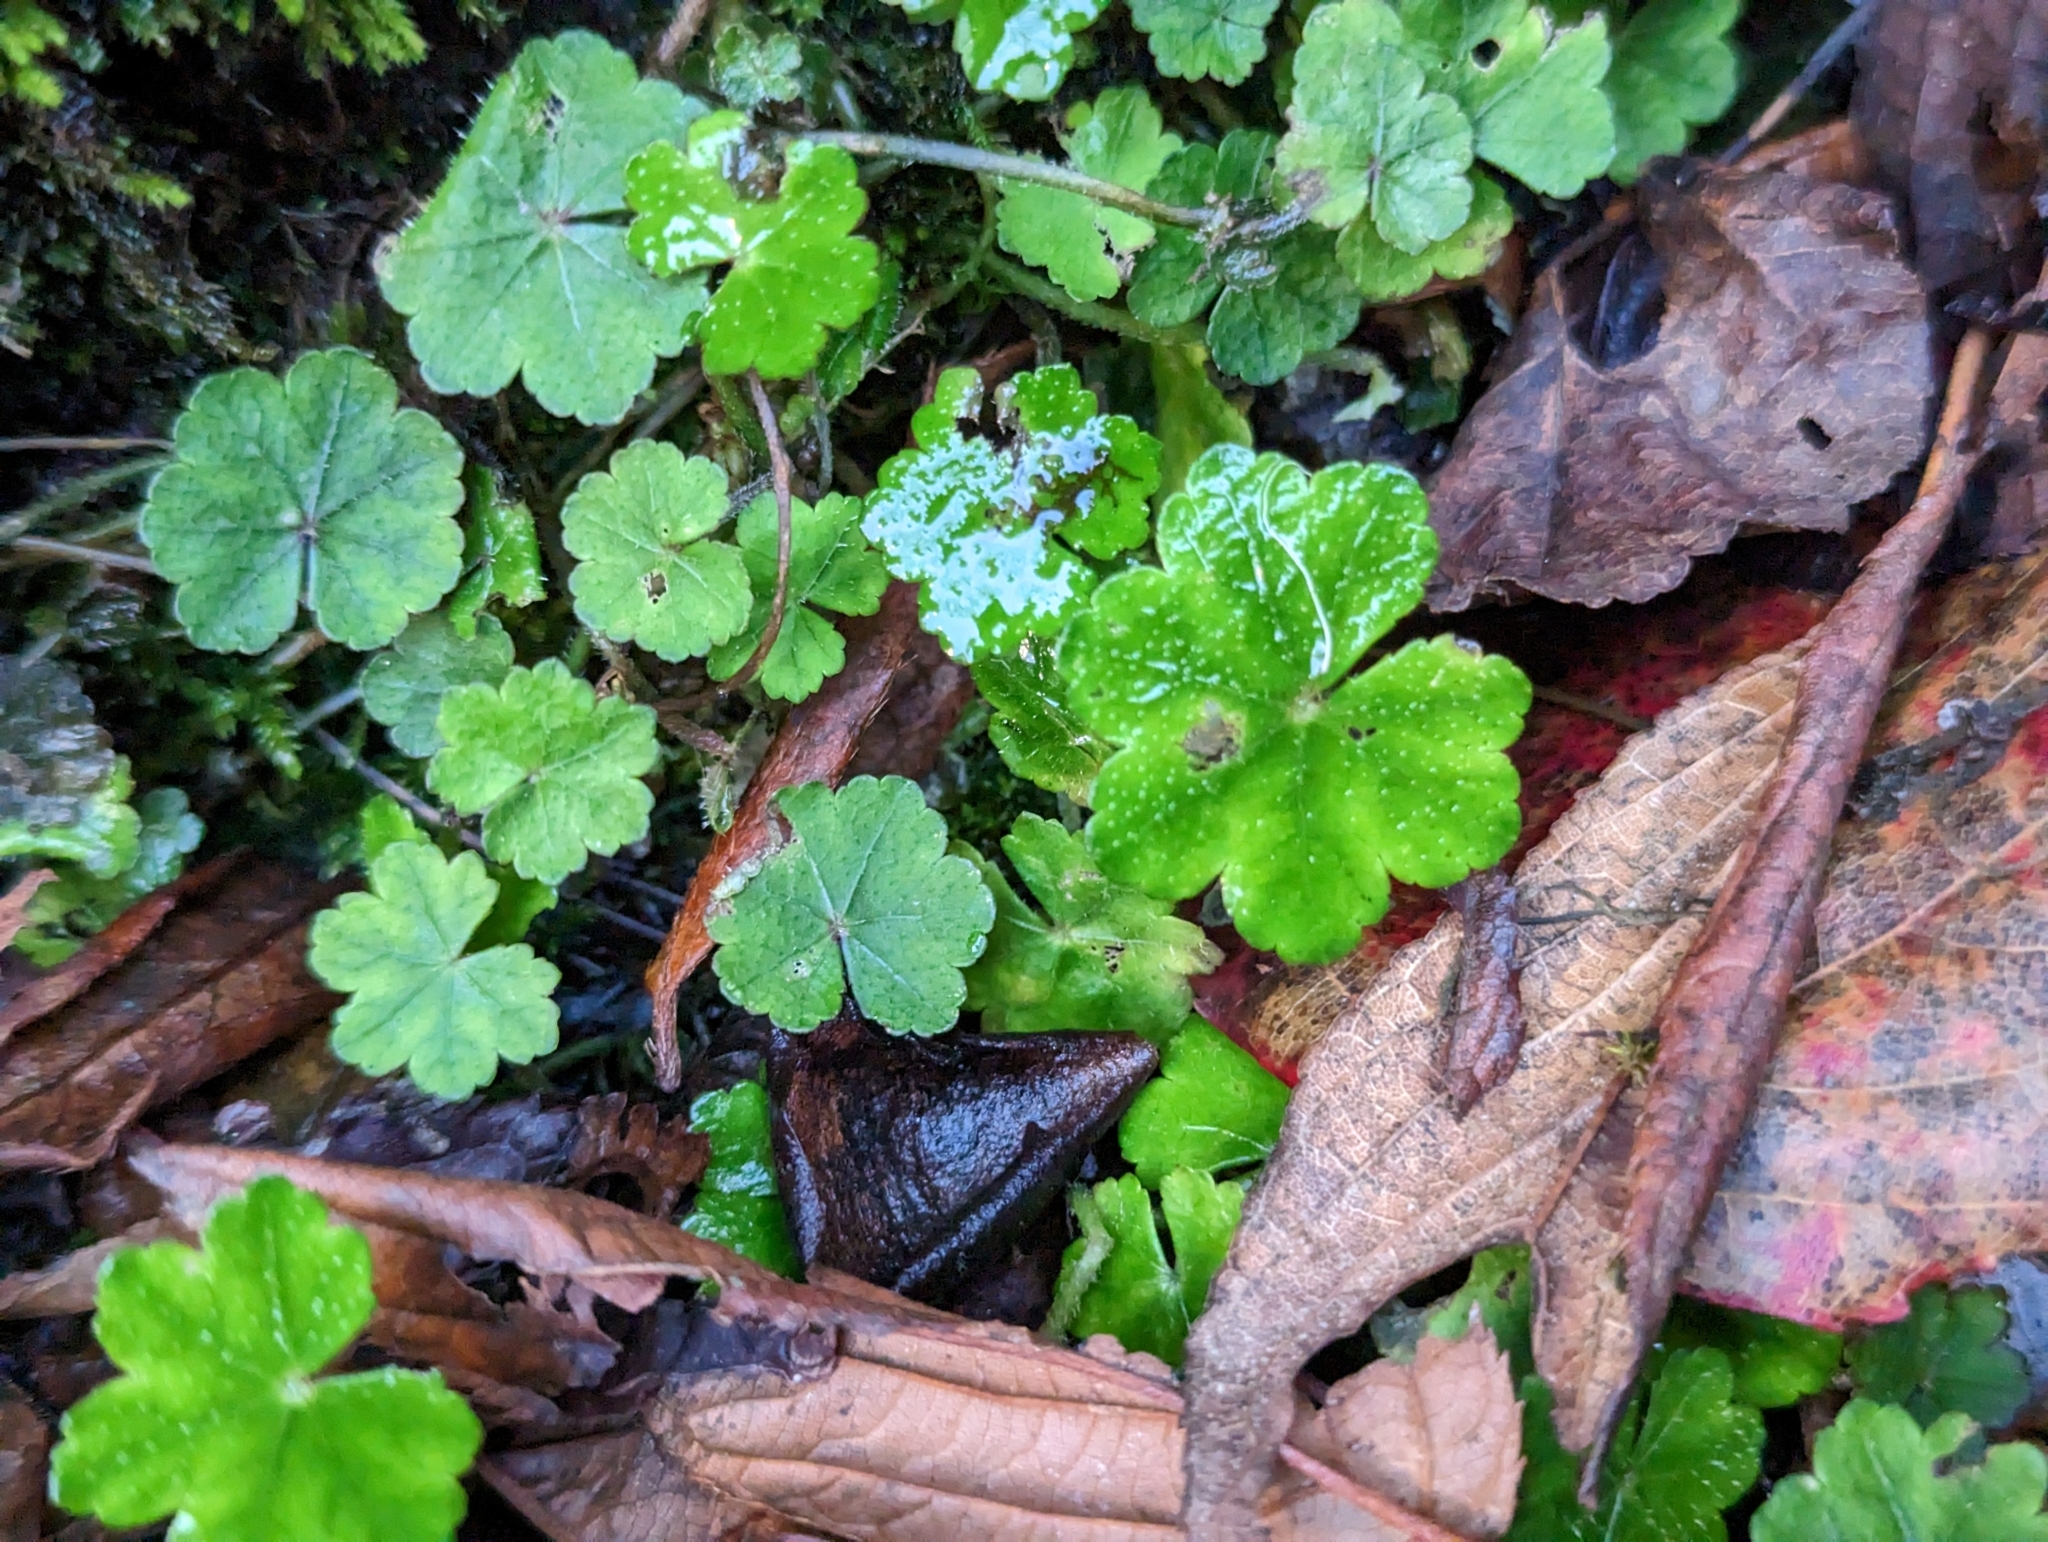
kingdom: Plantae
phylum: Tracheophyta
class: Magnoliopsida
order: Apiales
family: Araliaceae
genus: Hydrocotyle
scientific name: Hydrocotyle nepalensis
